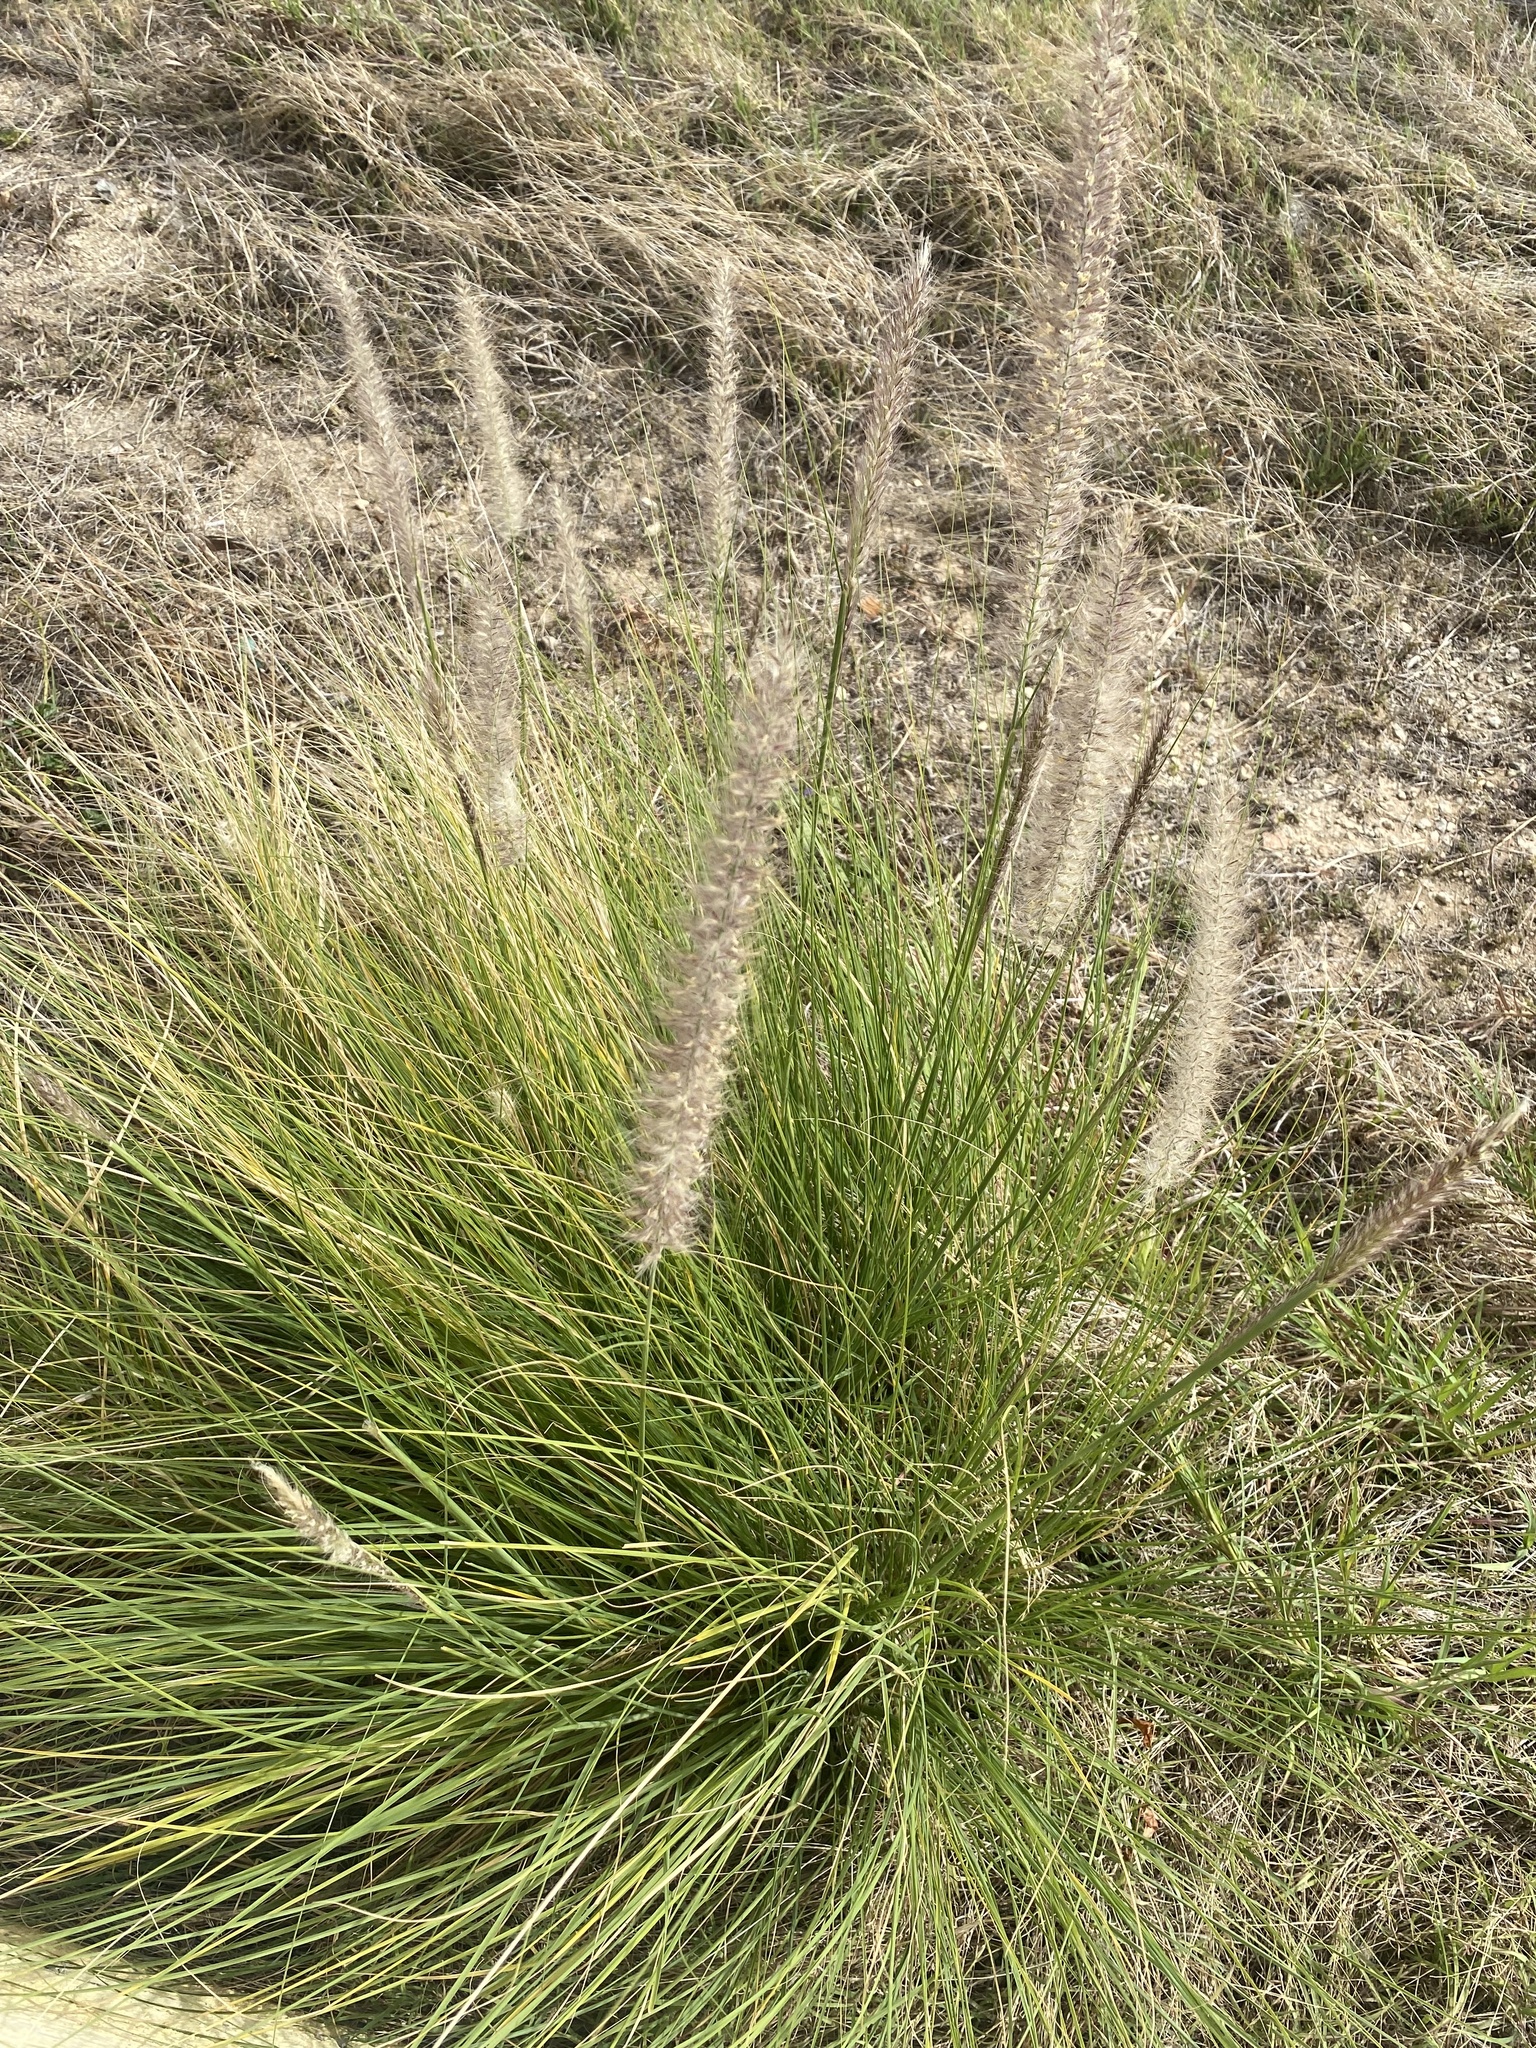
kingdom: Plantae
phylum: Tracheophyta
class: Liliopsida
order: Poales
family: Poaceae
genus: Cenchrus
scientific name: Cenchrus setaceus
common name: Crimson fountaingrass
